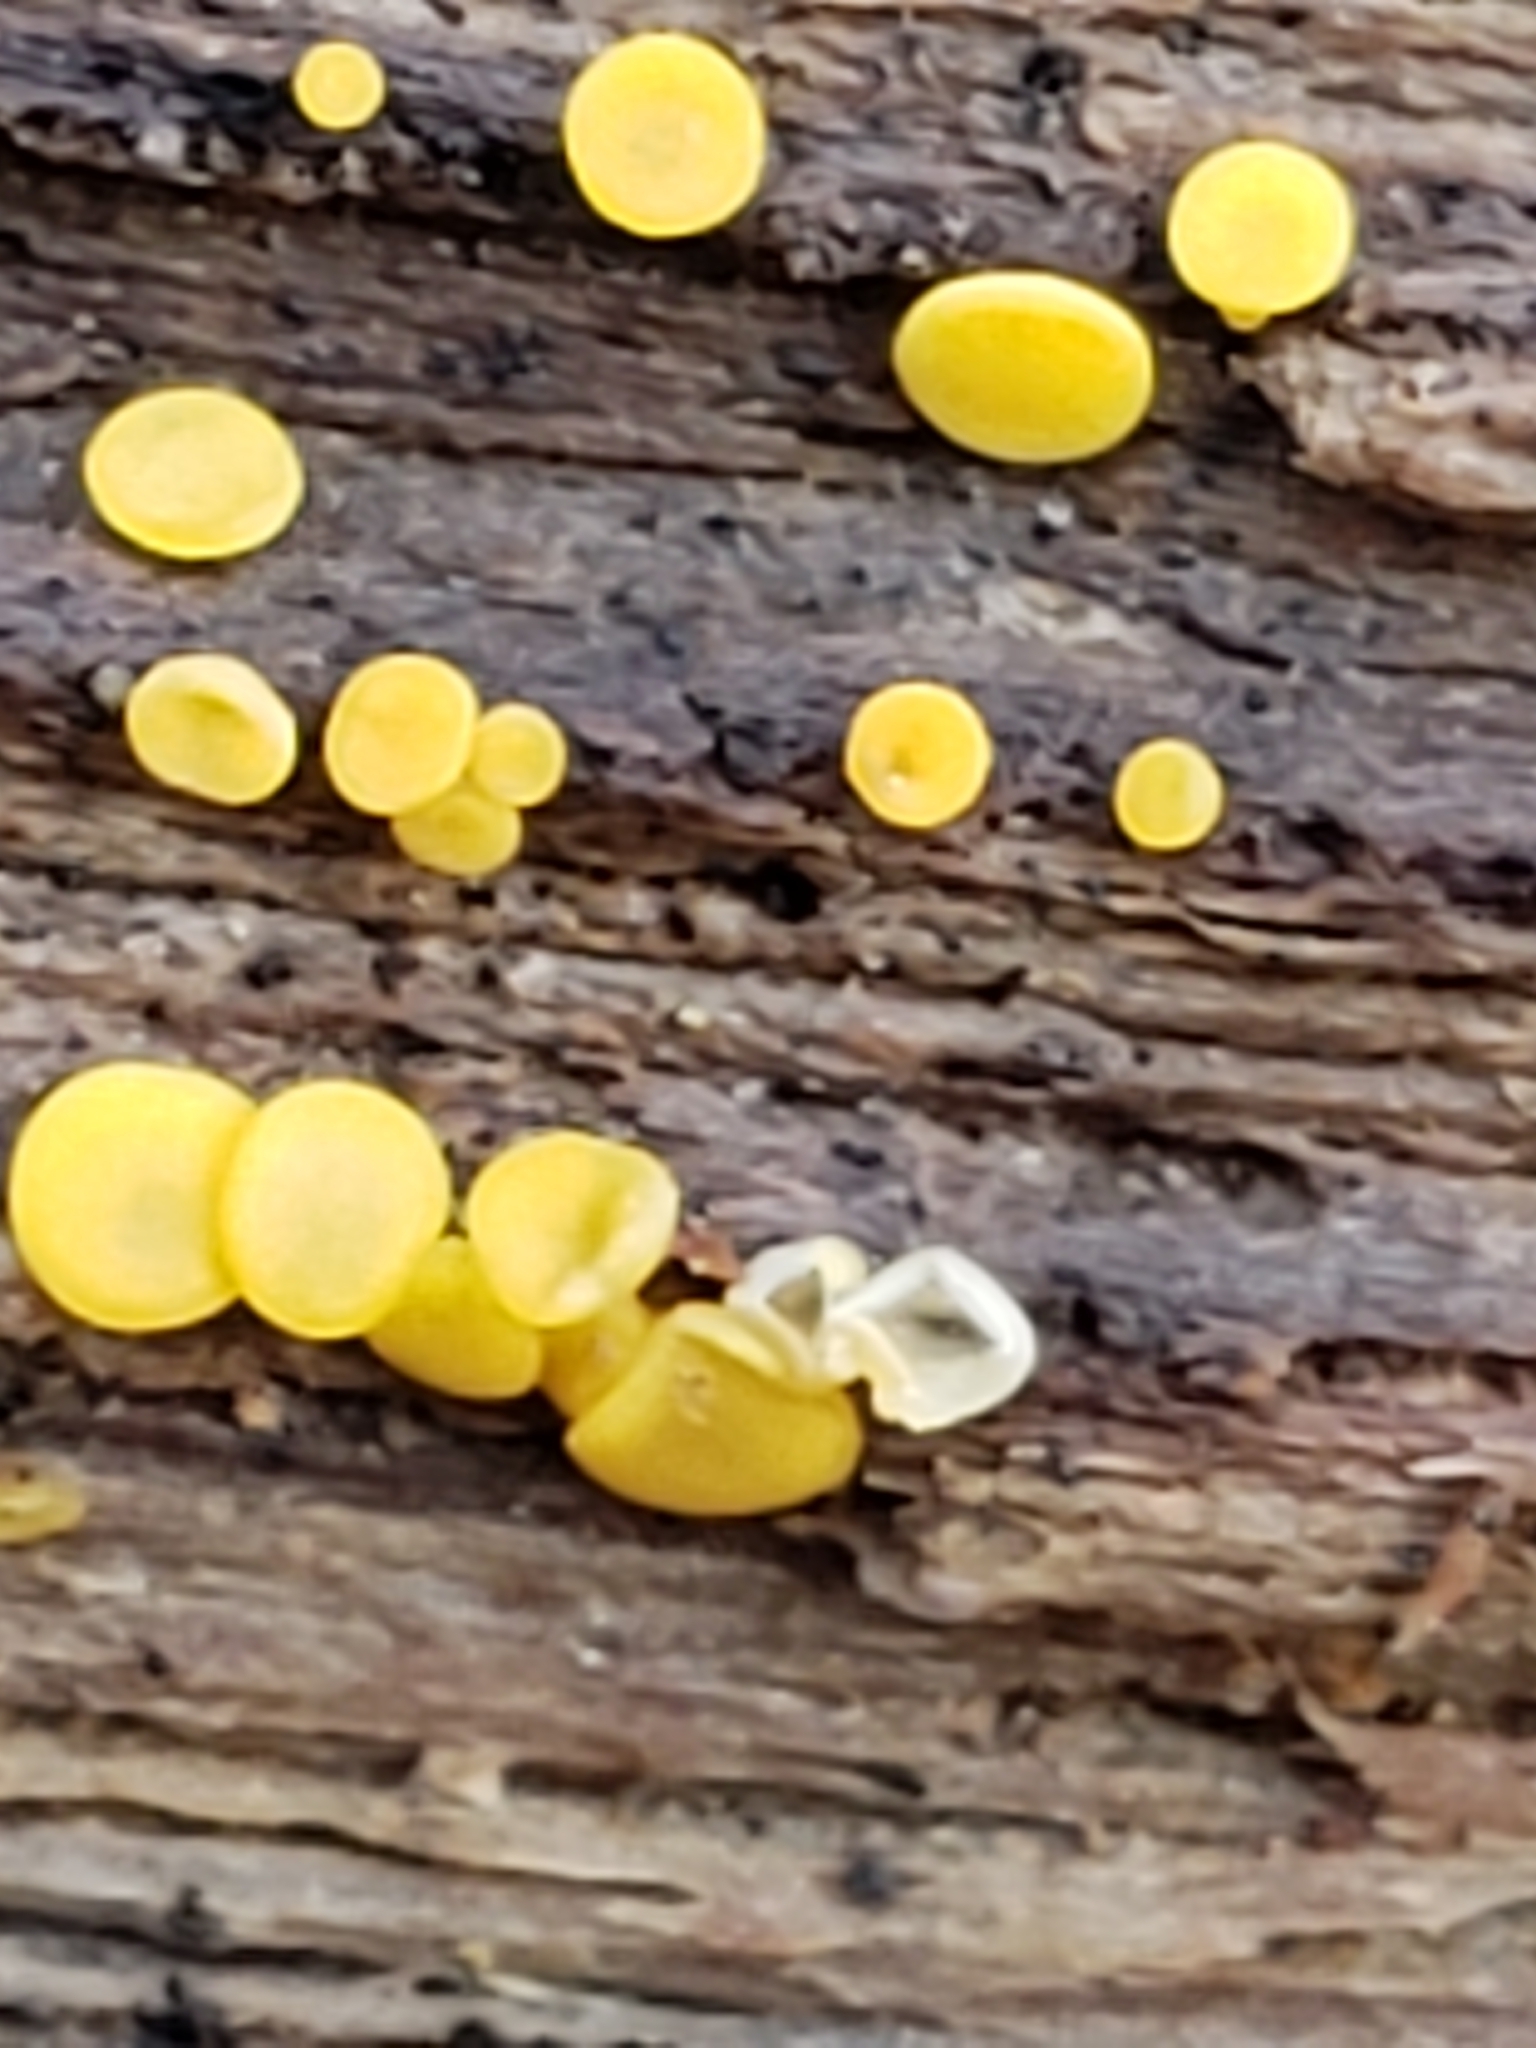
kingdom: Fungi
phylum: Ascomycota
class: Leotiomycetes
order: Helotiales
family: Pezizellaceae
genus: Calycina
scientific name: Calycina citrina
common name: Yellow fairy cups
